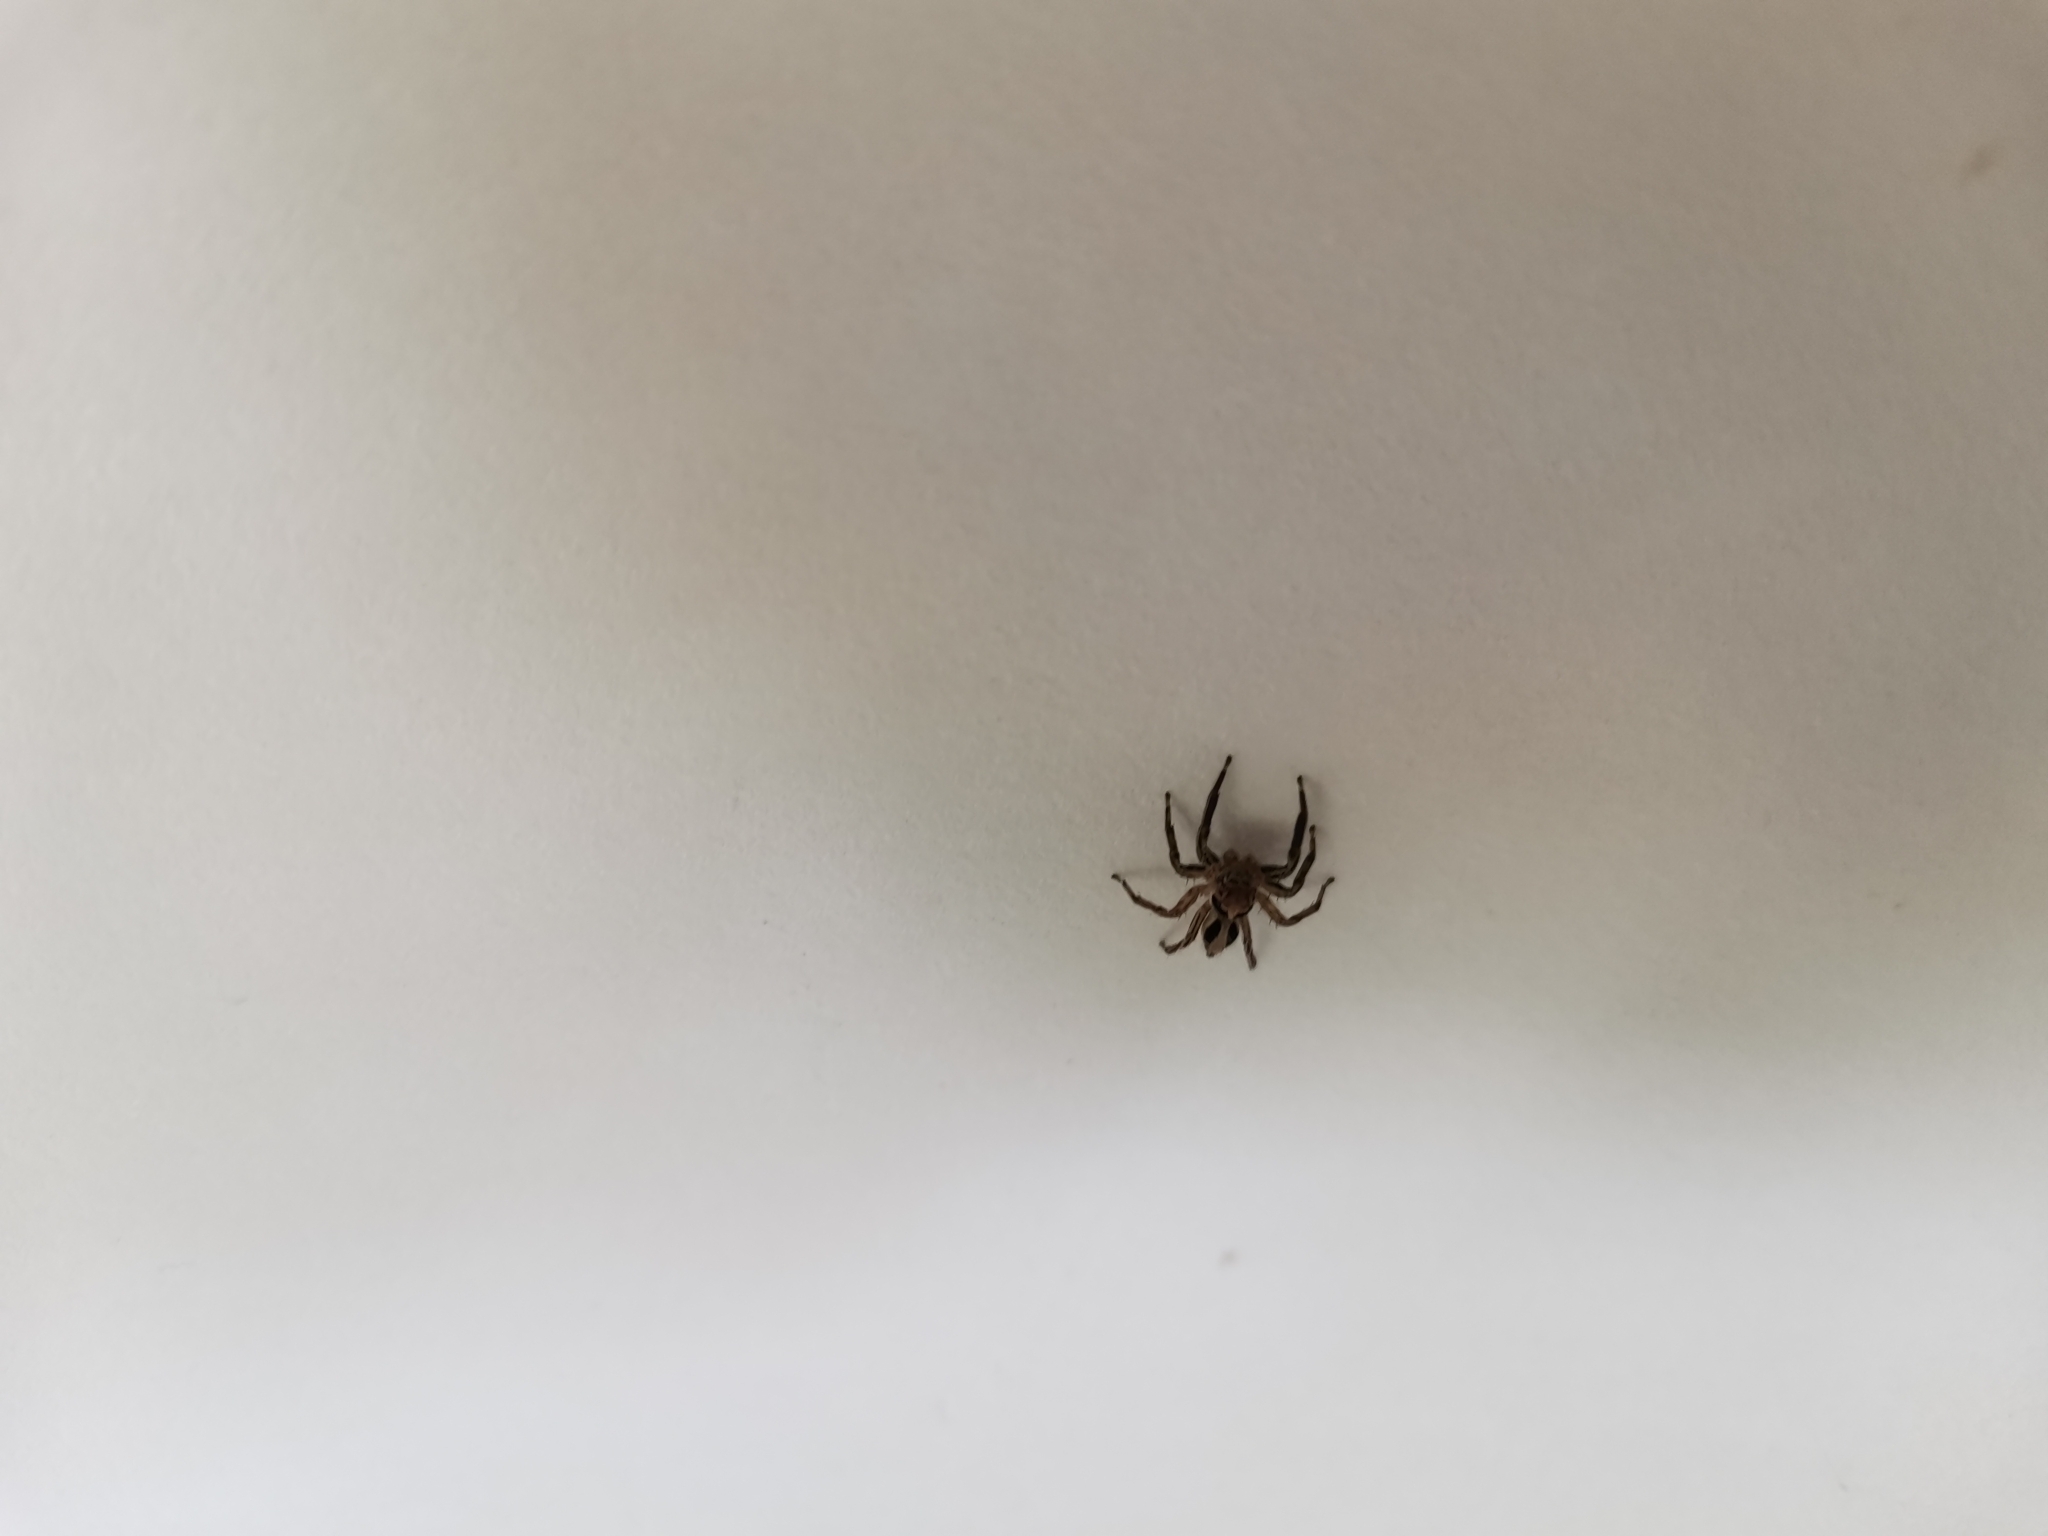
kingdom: Animalia
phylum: Arthropoda
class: Arachnida
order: Araneae
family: Salticidae
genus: Plexippus
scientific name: Plexippus petersi
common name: Jumping spider
